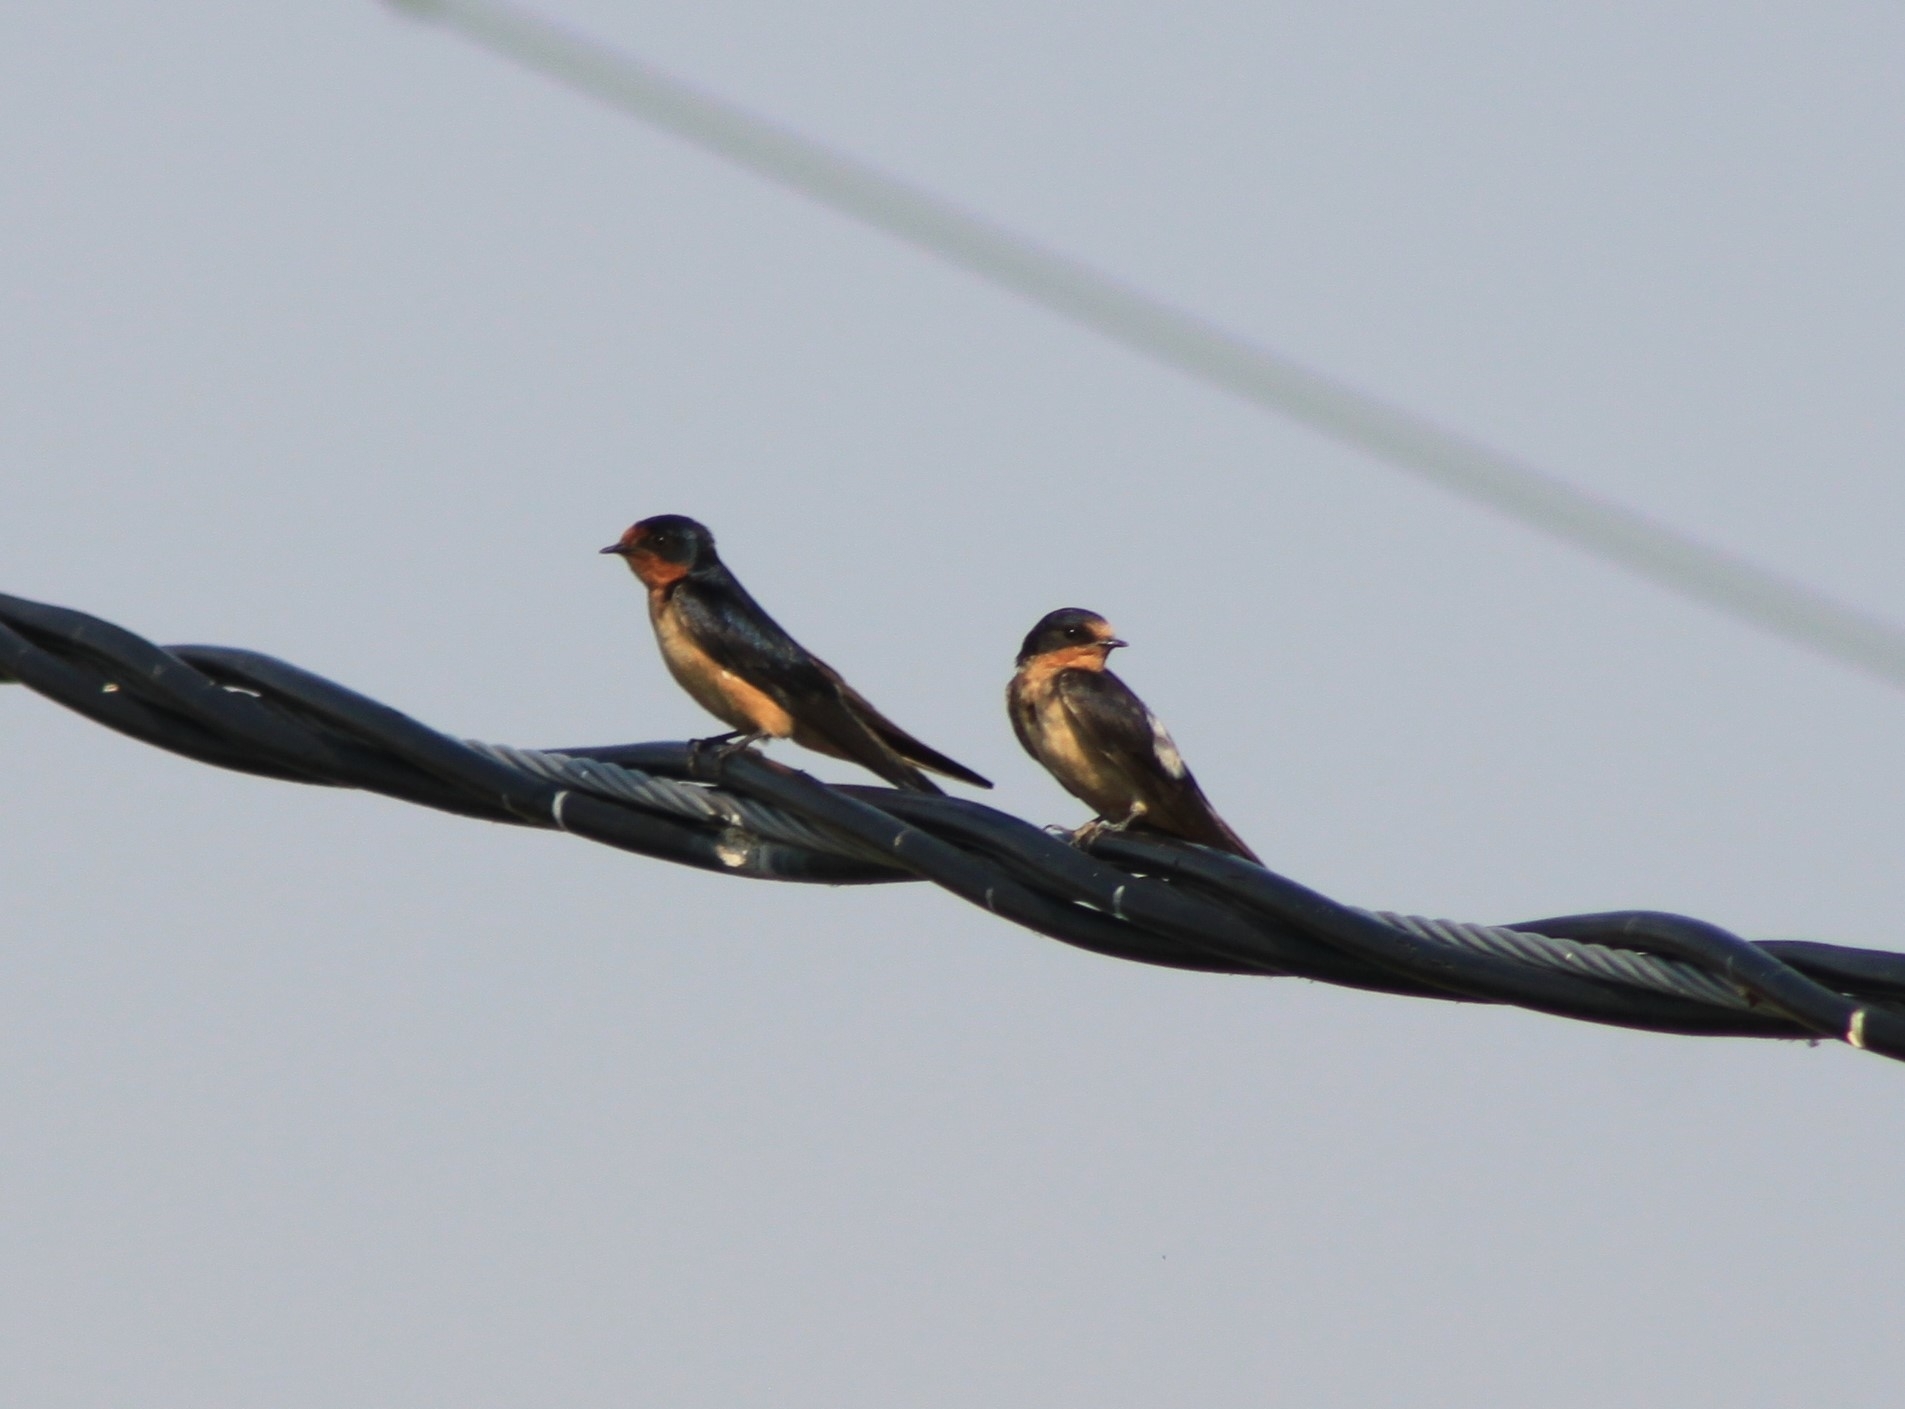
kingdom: Animalia
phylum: Chordata
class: Aves
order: Passeriformes
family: Hirundinidae
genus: Hirundo
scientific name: Hirundo rustica
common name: Barn swallow
